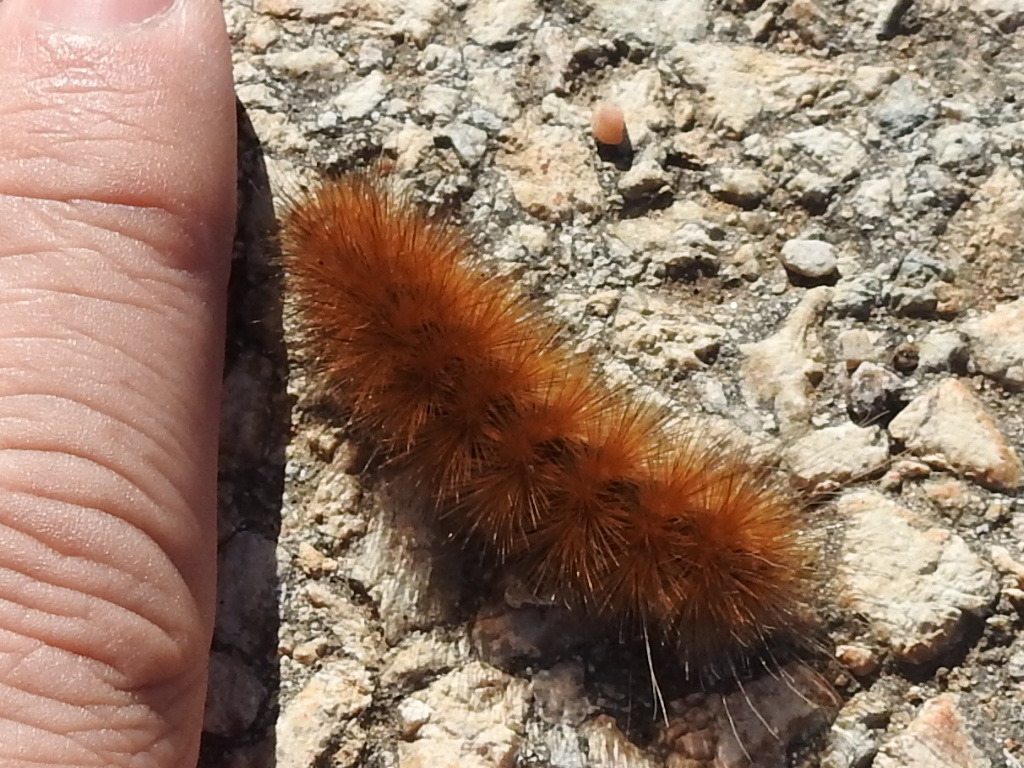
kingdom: Animalia
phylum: Arthropoda
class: Insecta
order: Lepidoptera
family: Erebidae
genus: Estigmene
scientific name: Estigmene acrea
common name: Salt marsh moth
